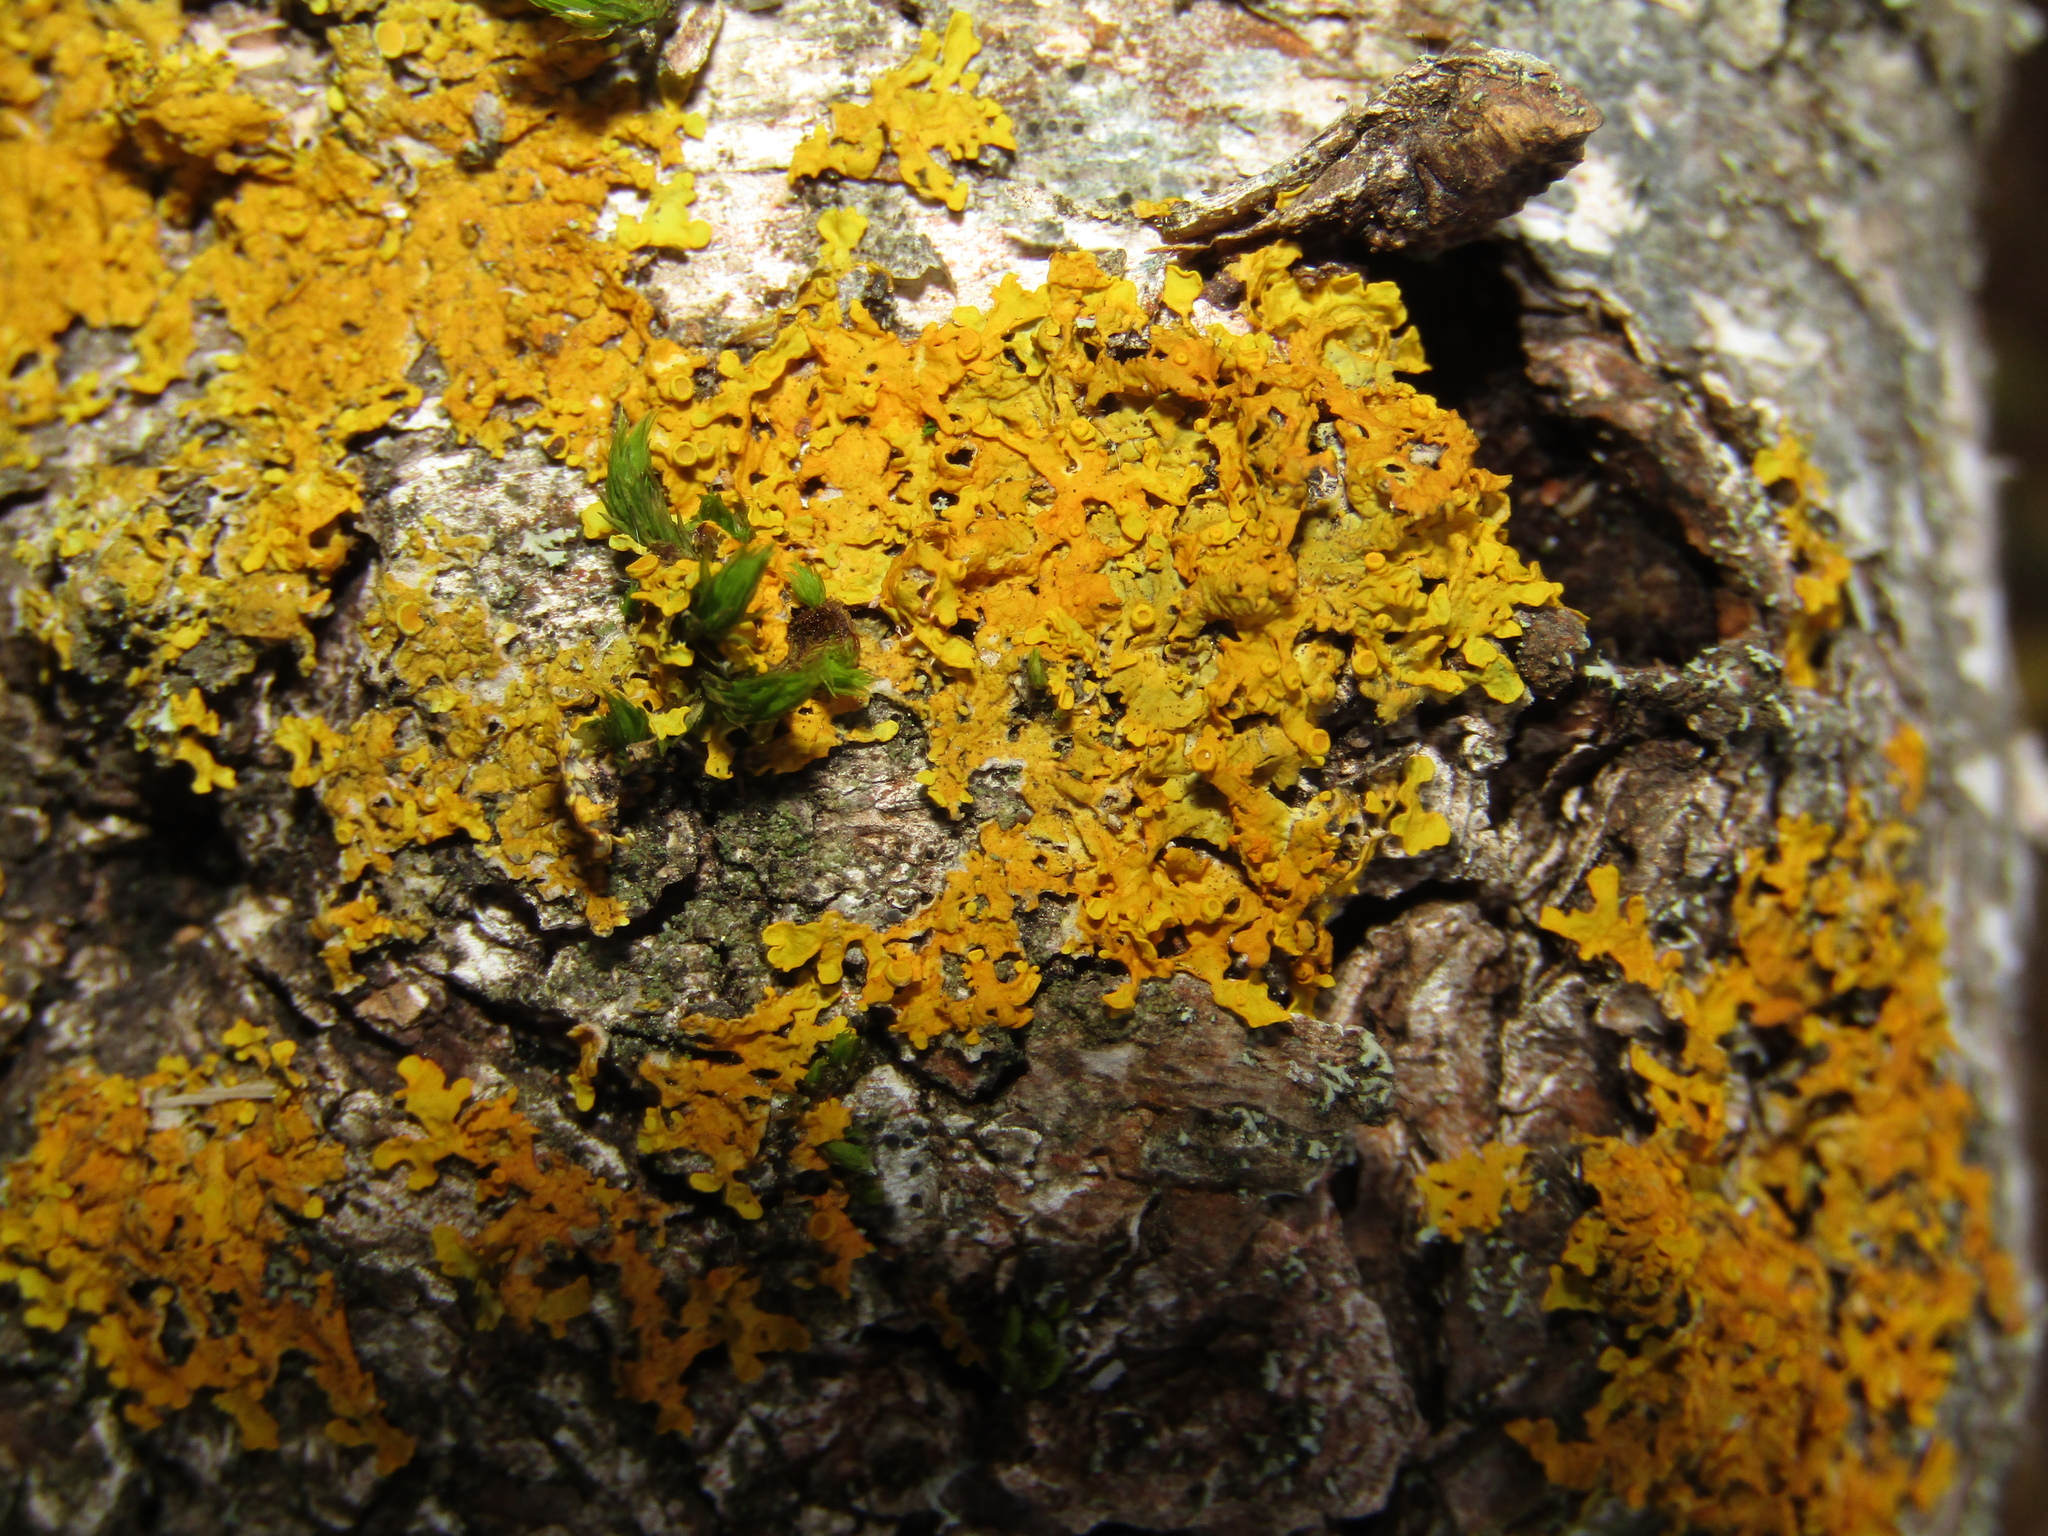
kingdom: Fungi
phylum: Ascomycota
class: Lecanoromycetes
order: Teloschistales
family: Teloschistaceae
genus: Xanthoria
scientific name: Xanthoria parietina
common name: Common orange lichen
